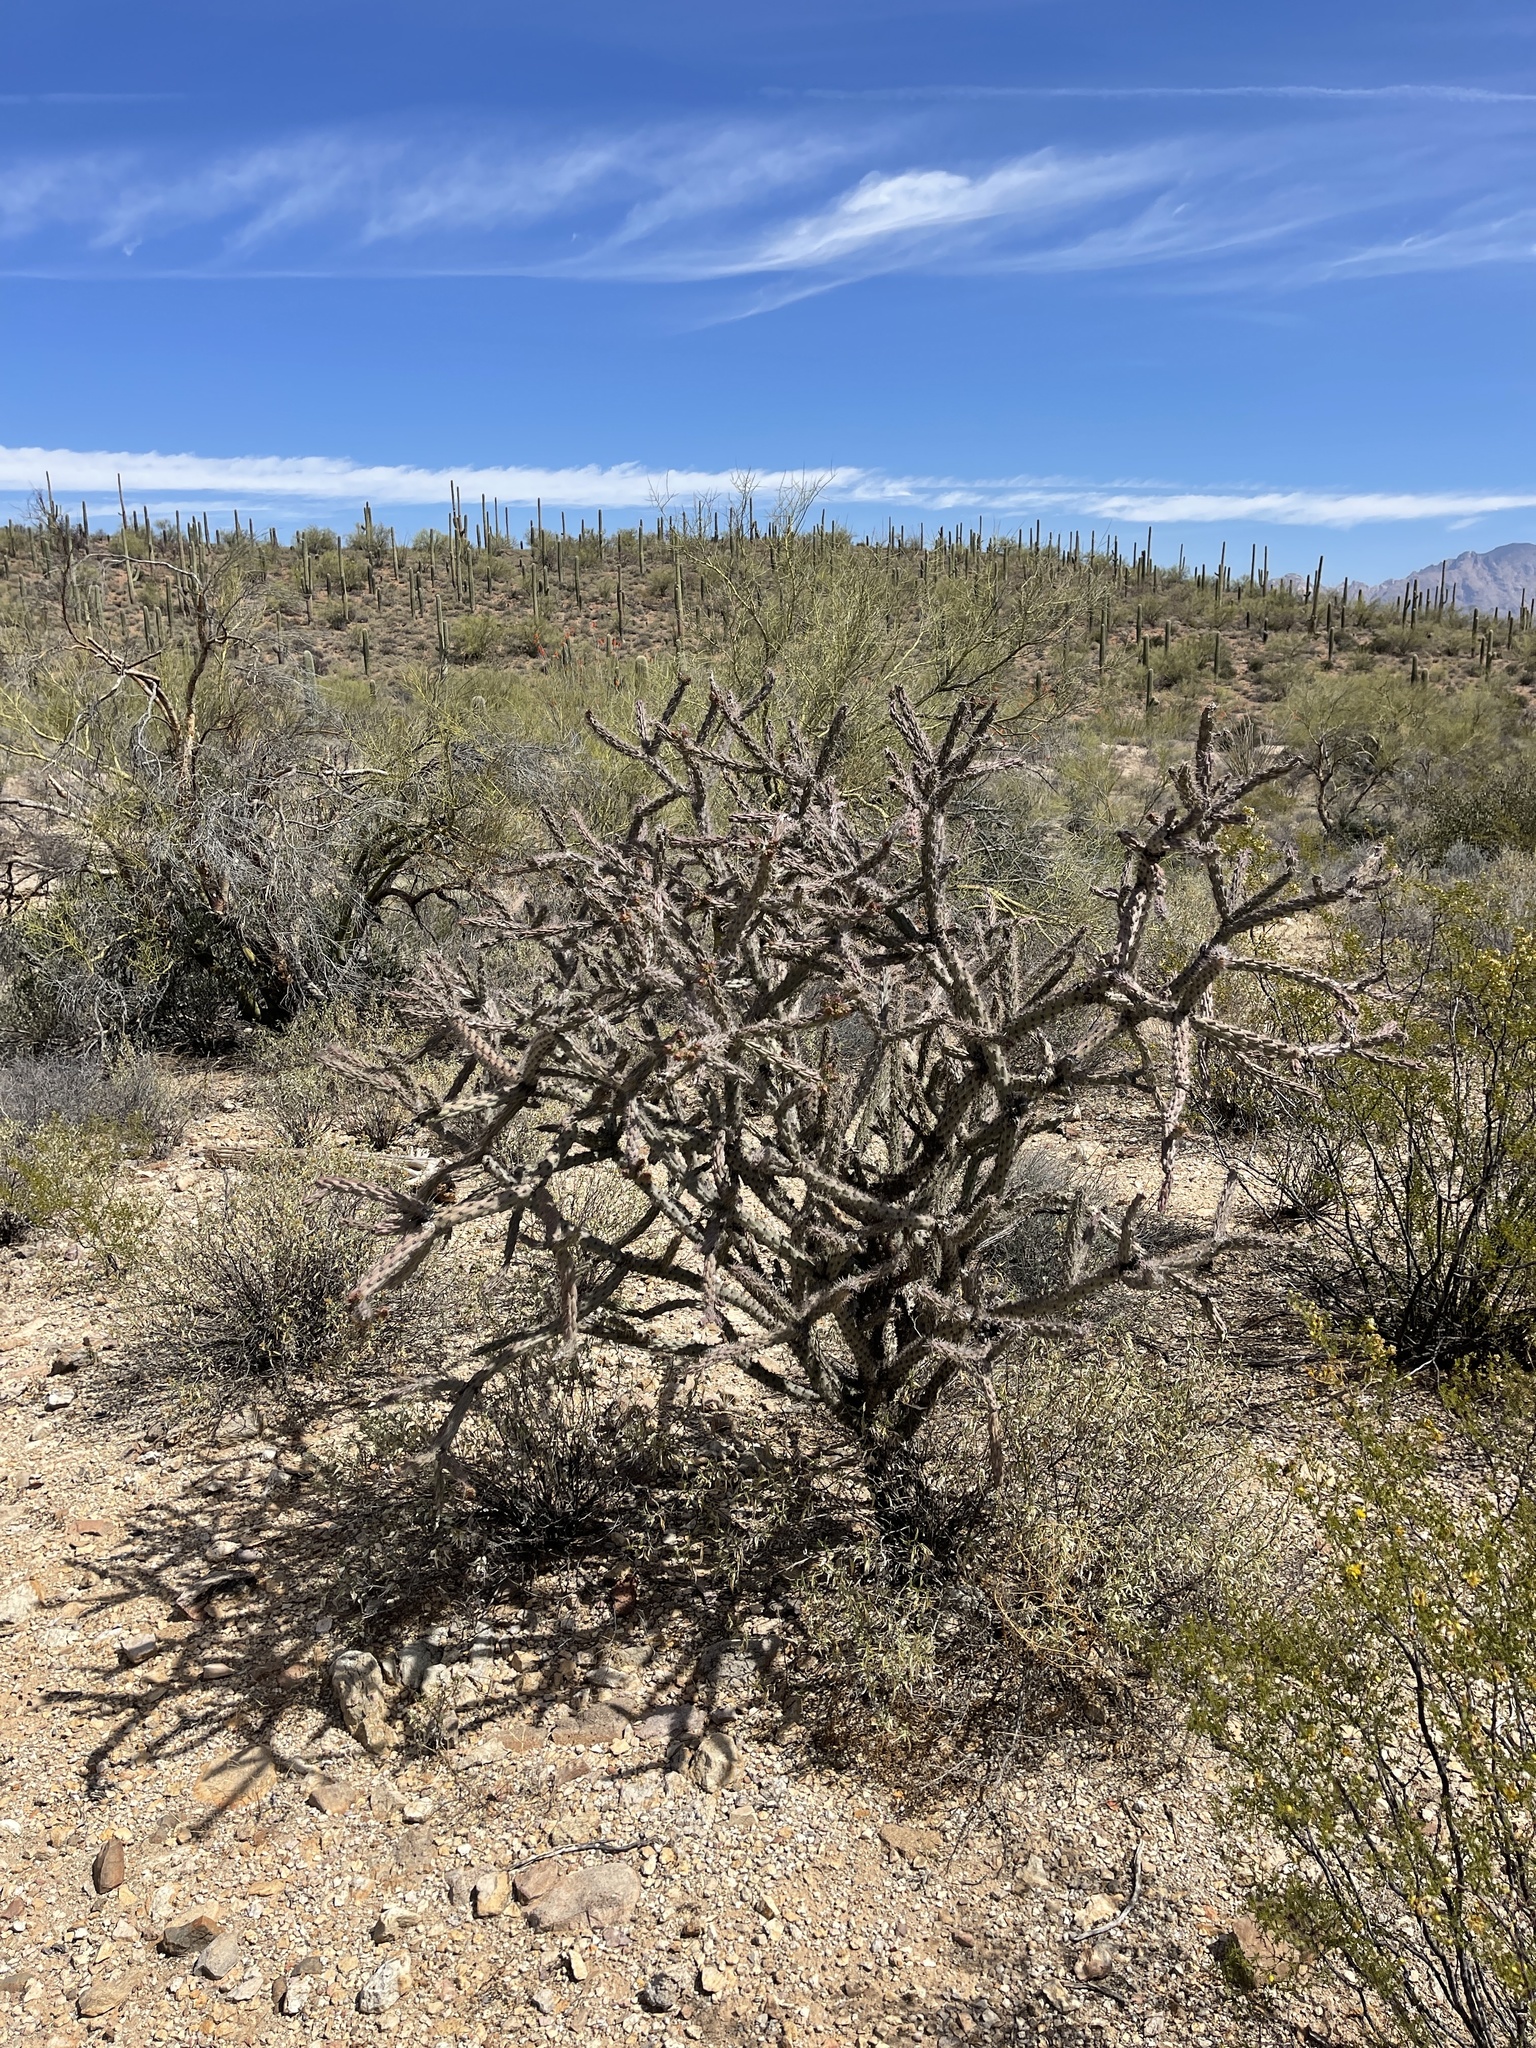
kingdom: Plantae
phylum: Tracheophyta
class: Magnoliopsida
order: Caryophyllales
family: Cactaceae
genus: Cylindropuntia
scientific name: Cylindropuntia thurberi
